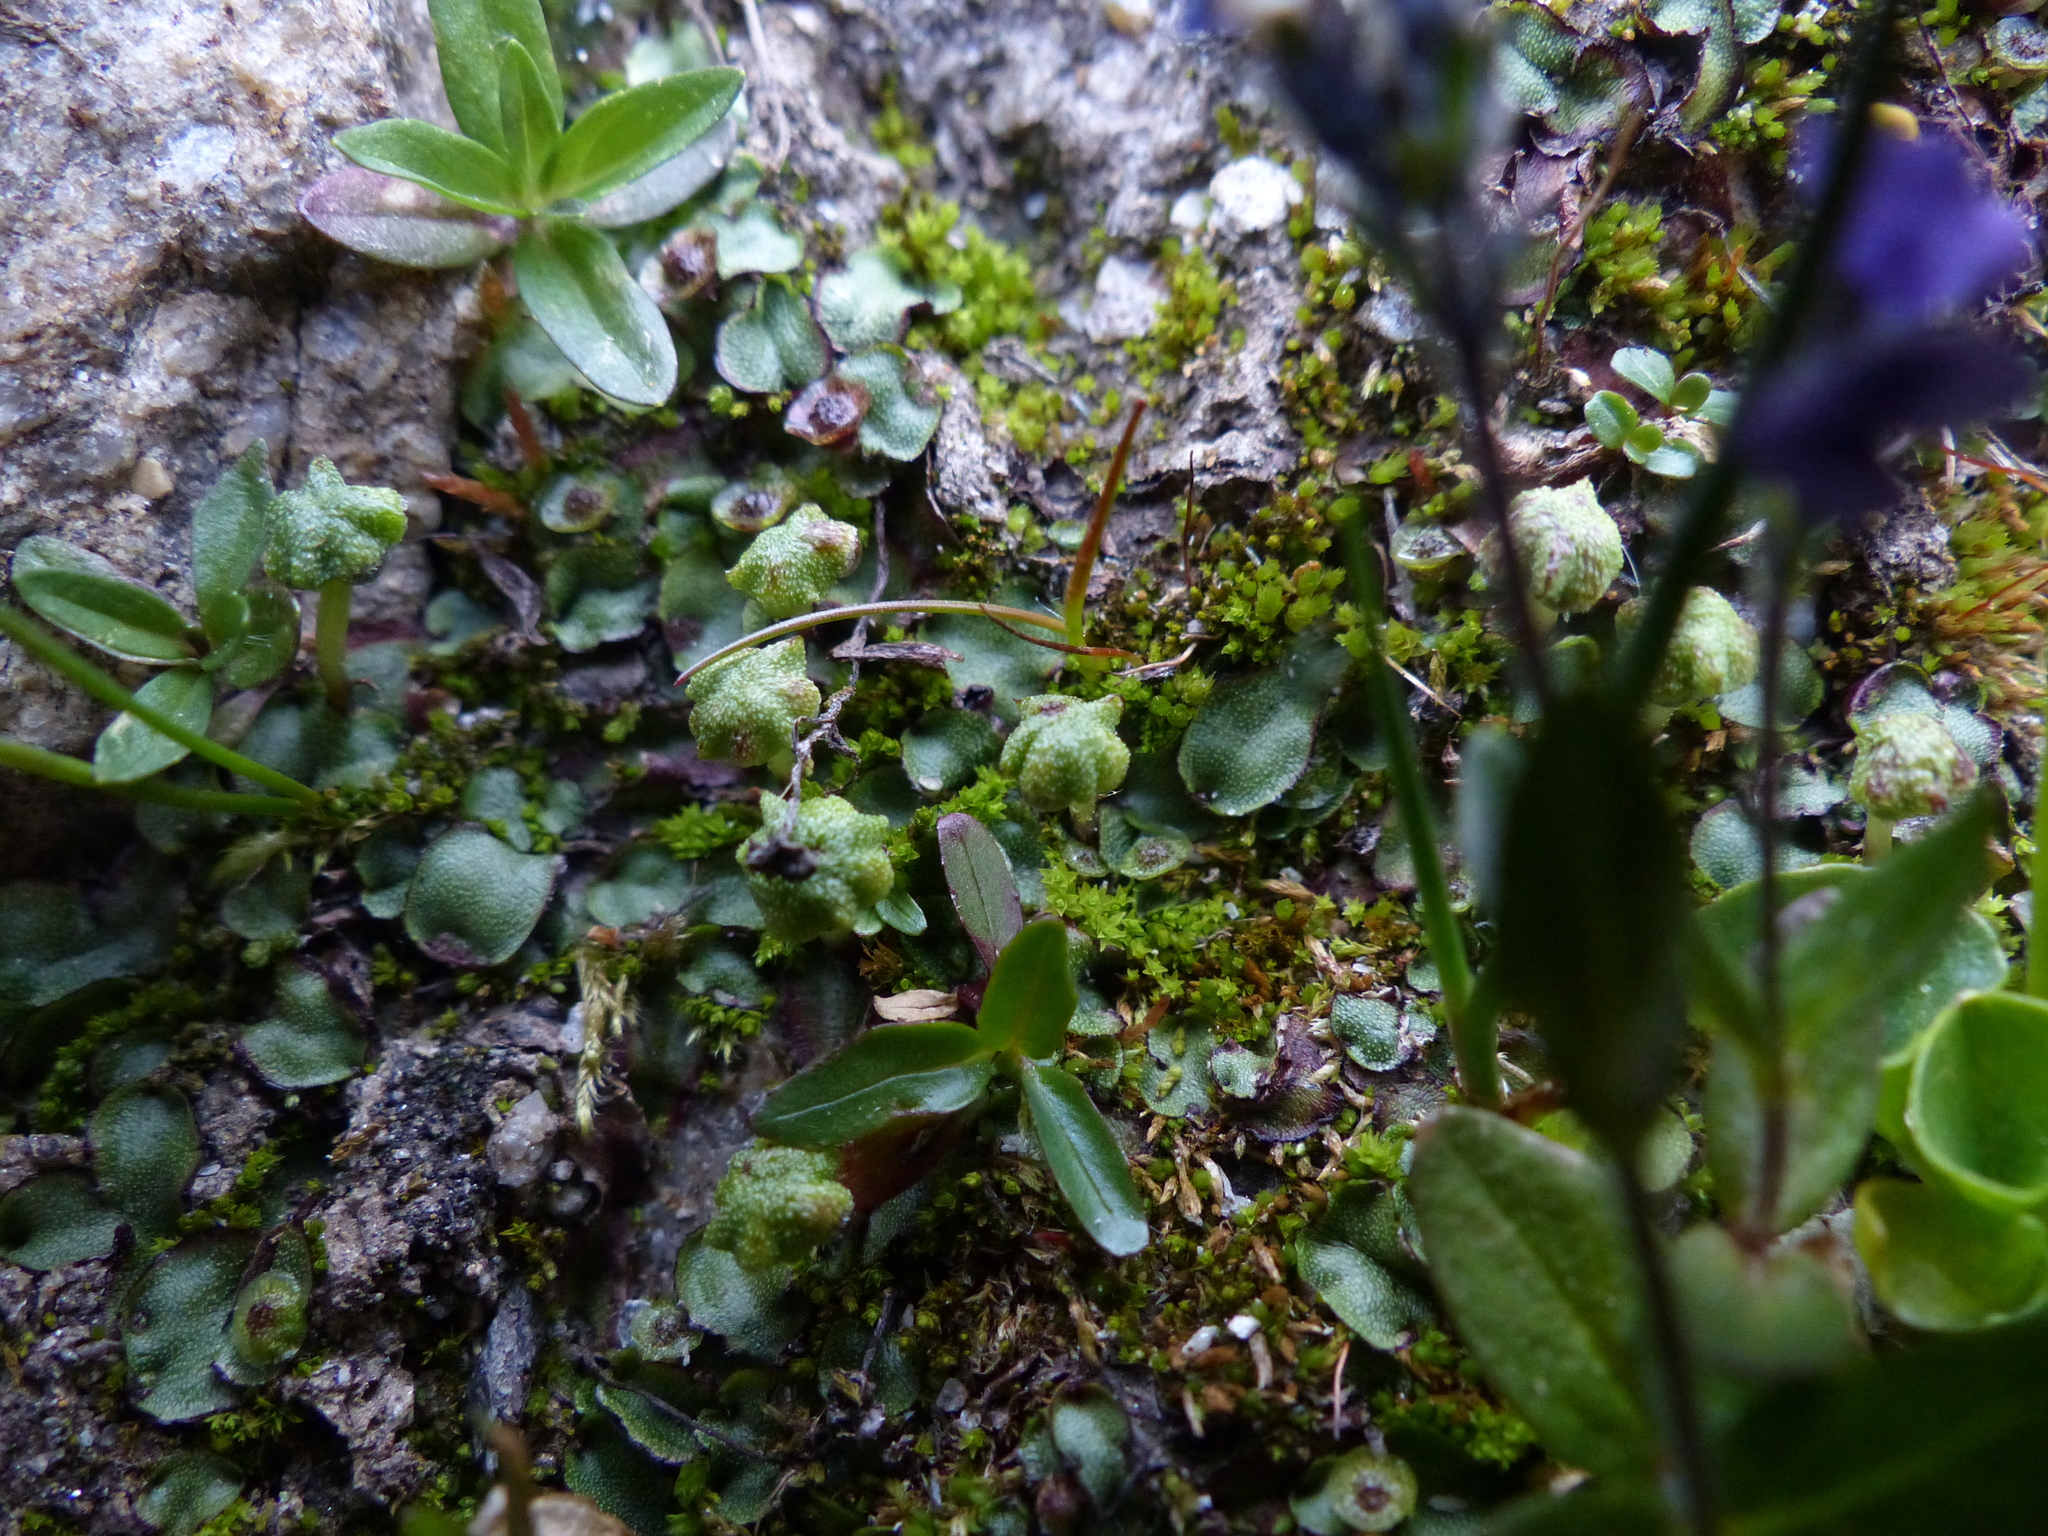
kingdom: Plantae
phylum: Marchantiophyta
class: Marchantiopsida
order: Marchantiales
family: Marchantiaceae
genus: Marchantia
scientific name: Marchantia quadrata
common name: Narrow mushroom-headed liverwort
